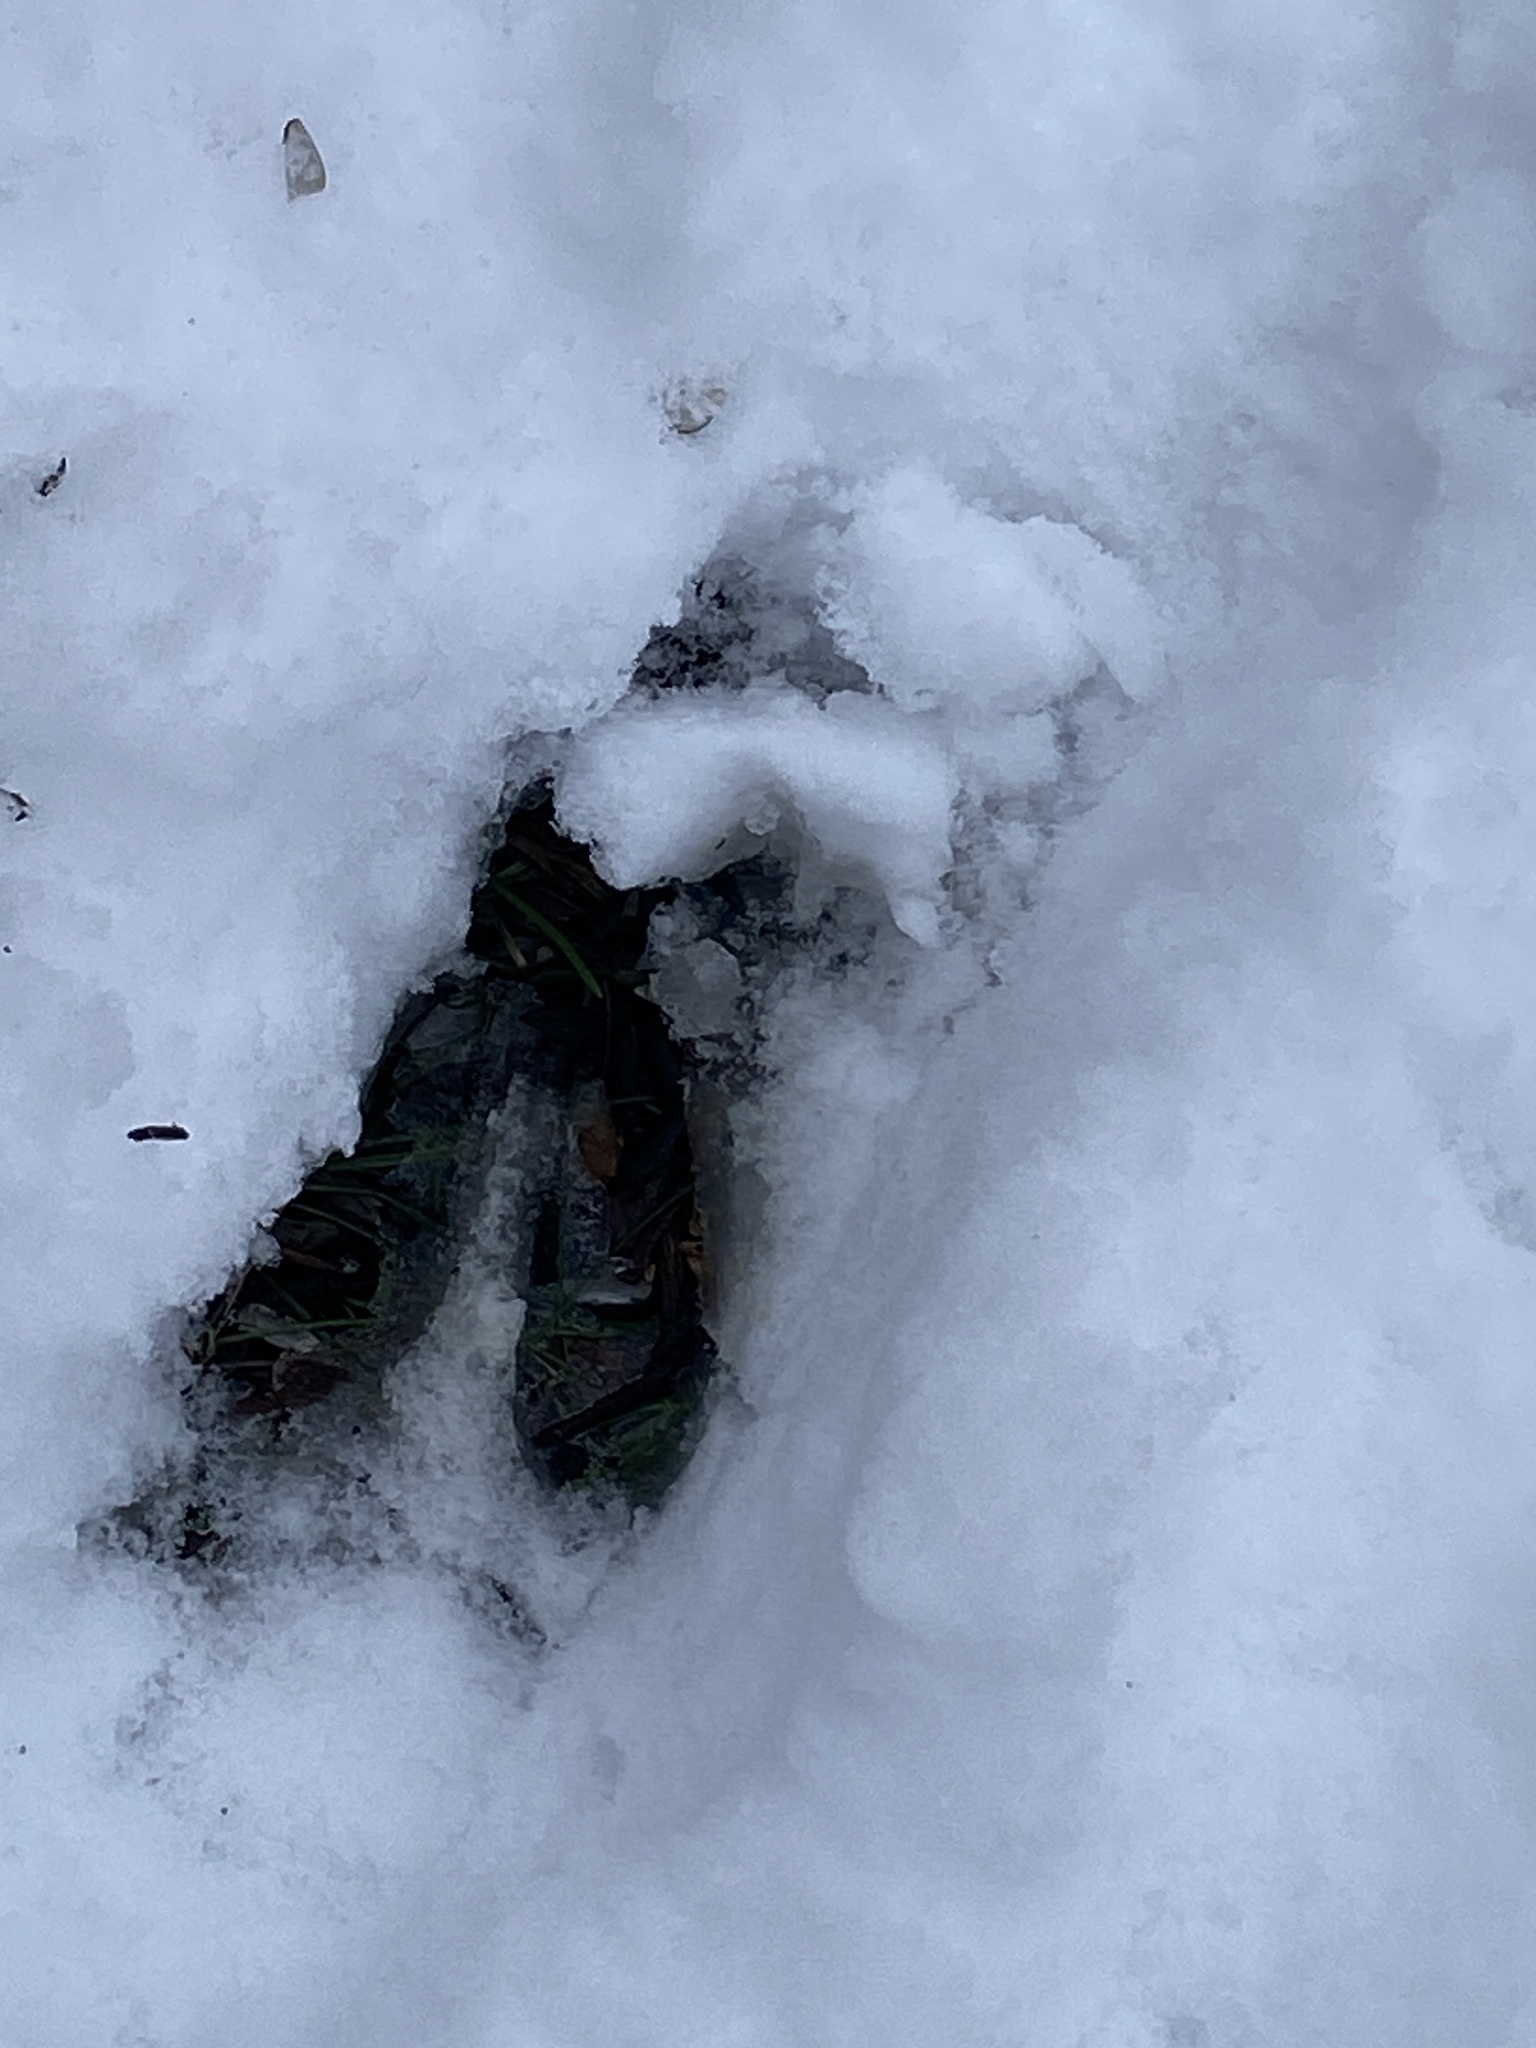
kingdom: Animalia
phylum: Chordata
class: Mammalia
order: Artiodactyla
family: Cervidae
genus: Odocoileus
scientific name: Odocoileus virginianus
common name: White-tailed deer
